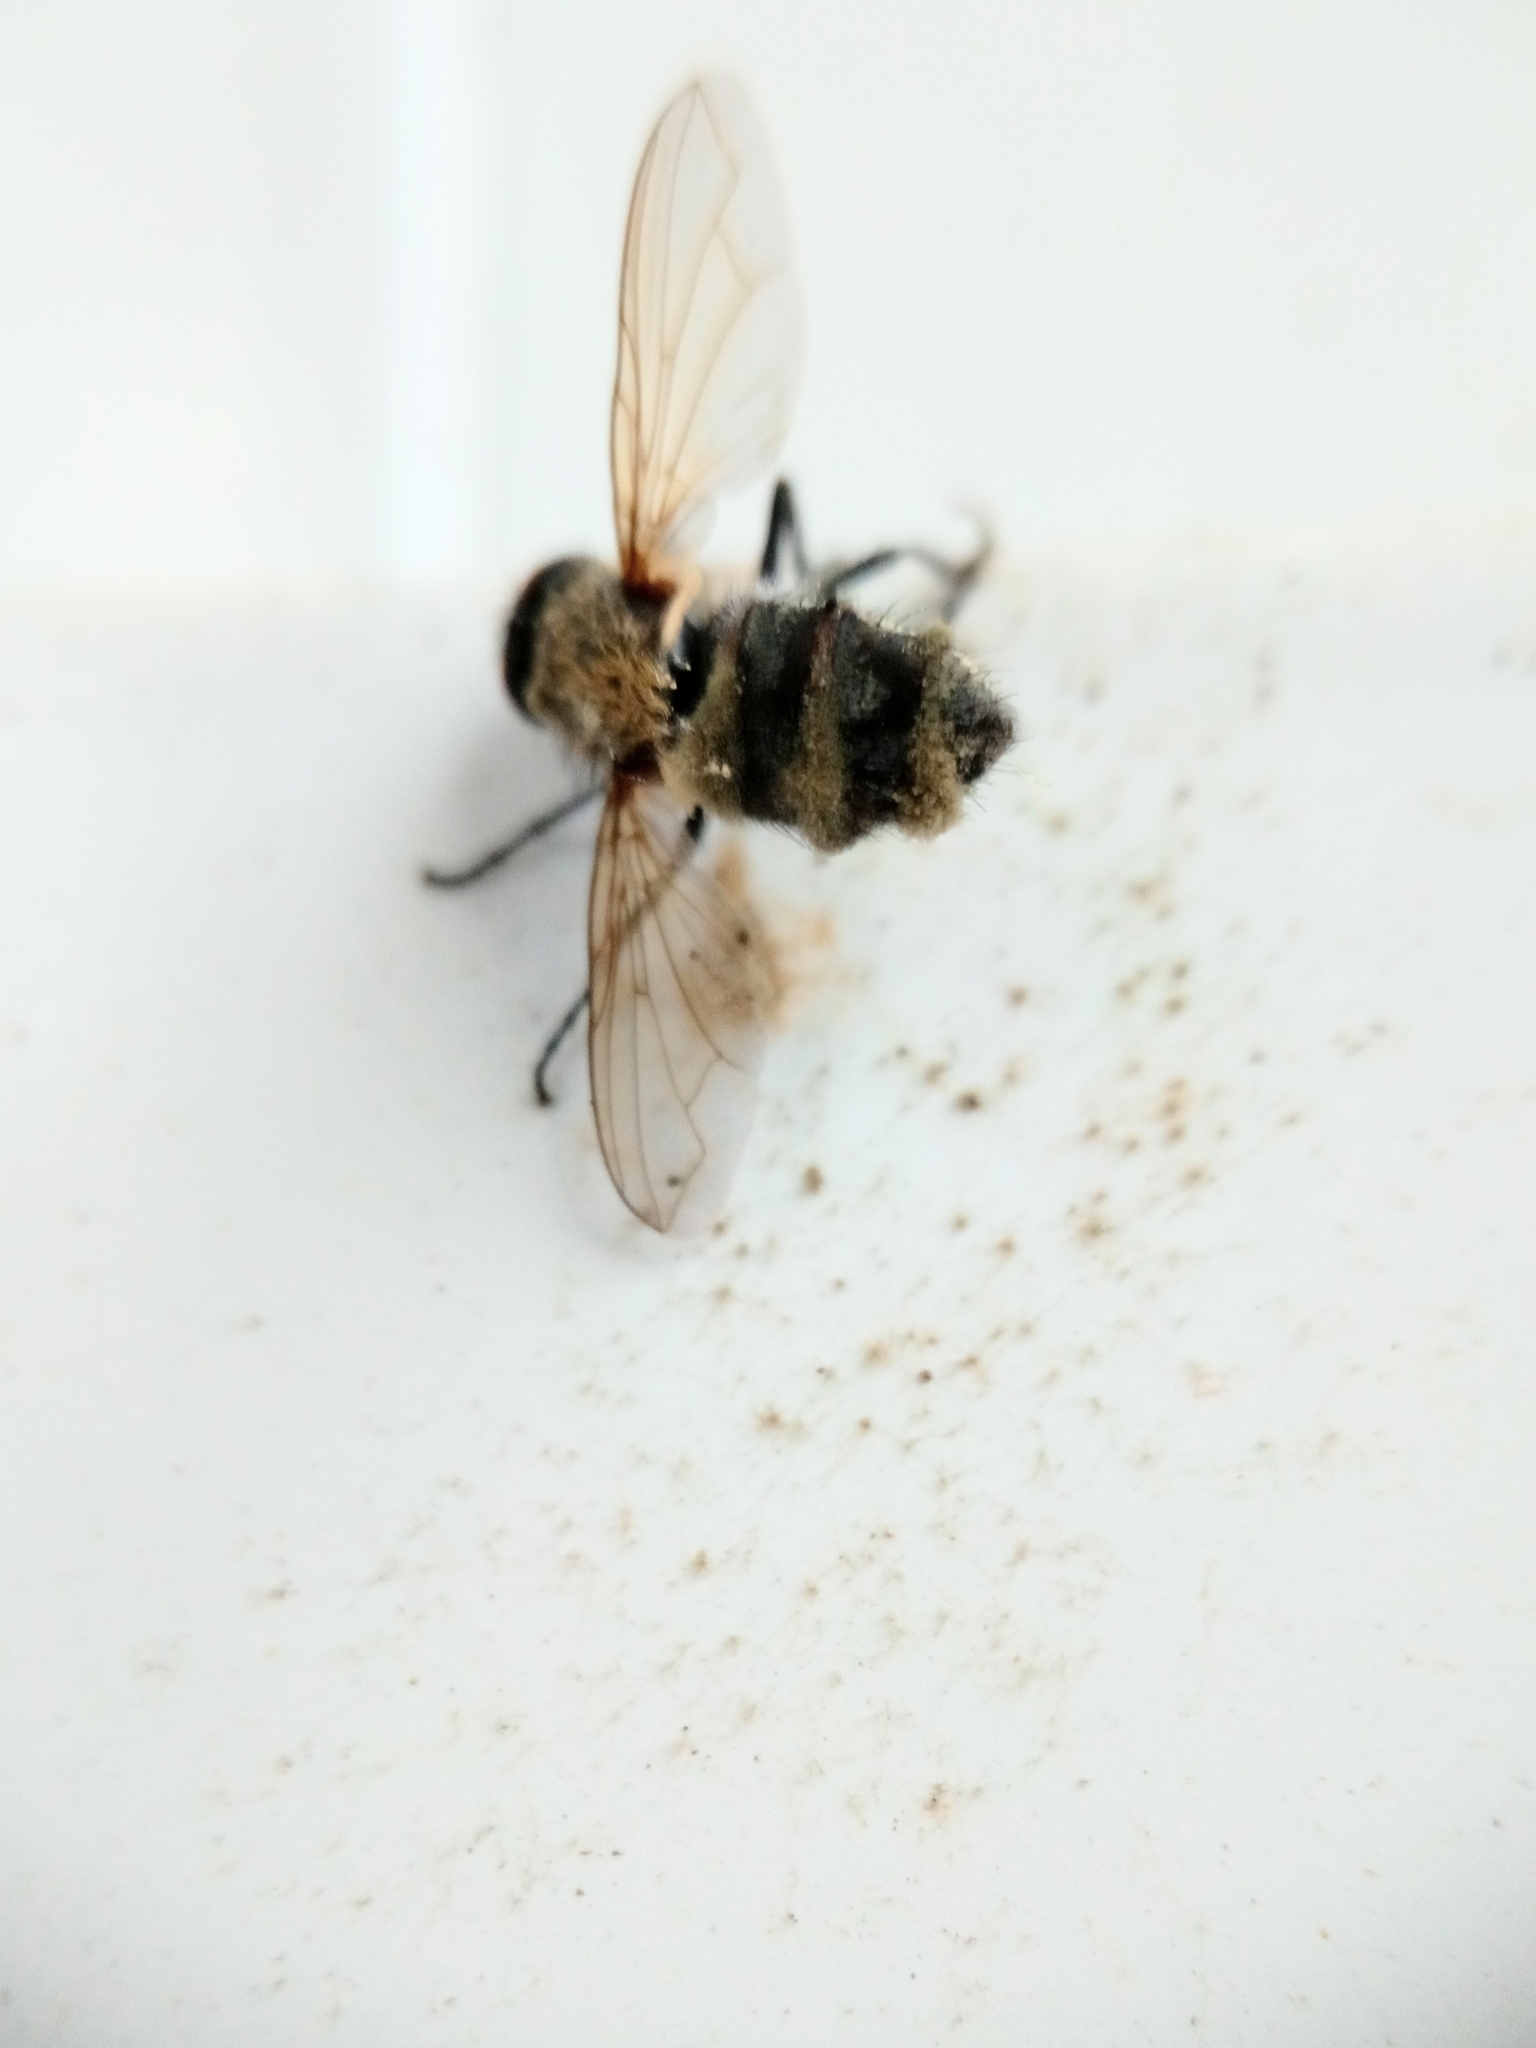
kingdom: Fungi
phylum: Entomophthoromycota
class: Entomophthoromycetes
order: Entomophthorales
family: Entomophthoraceae
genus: Entomophthora
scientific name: Entomophthora
